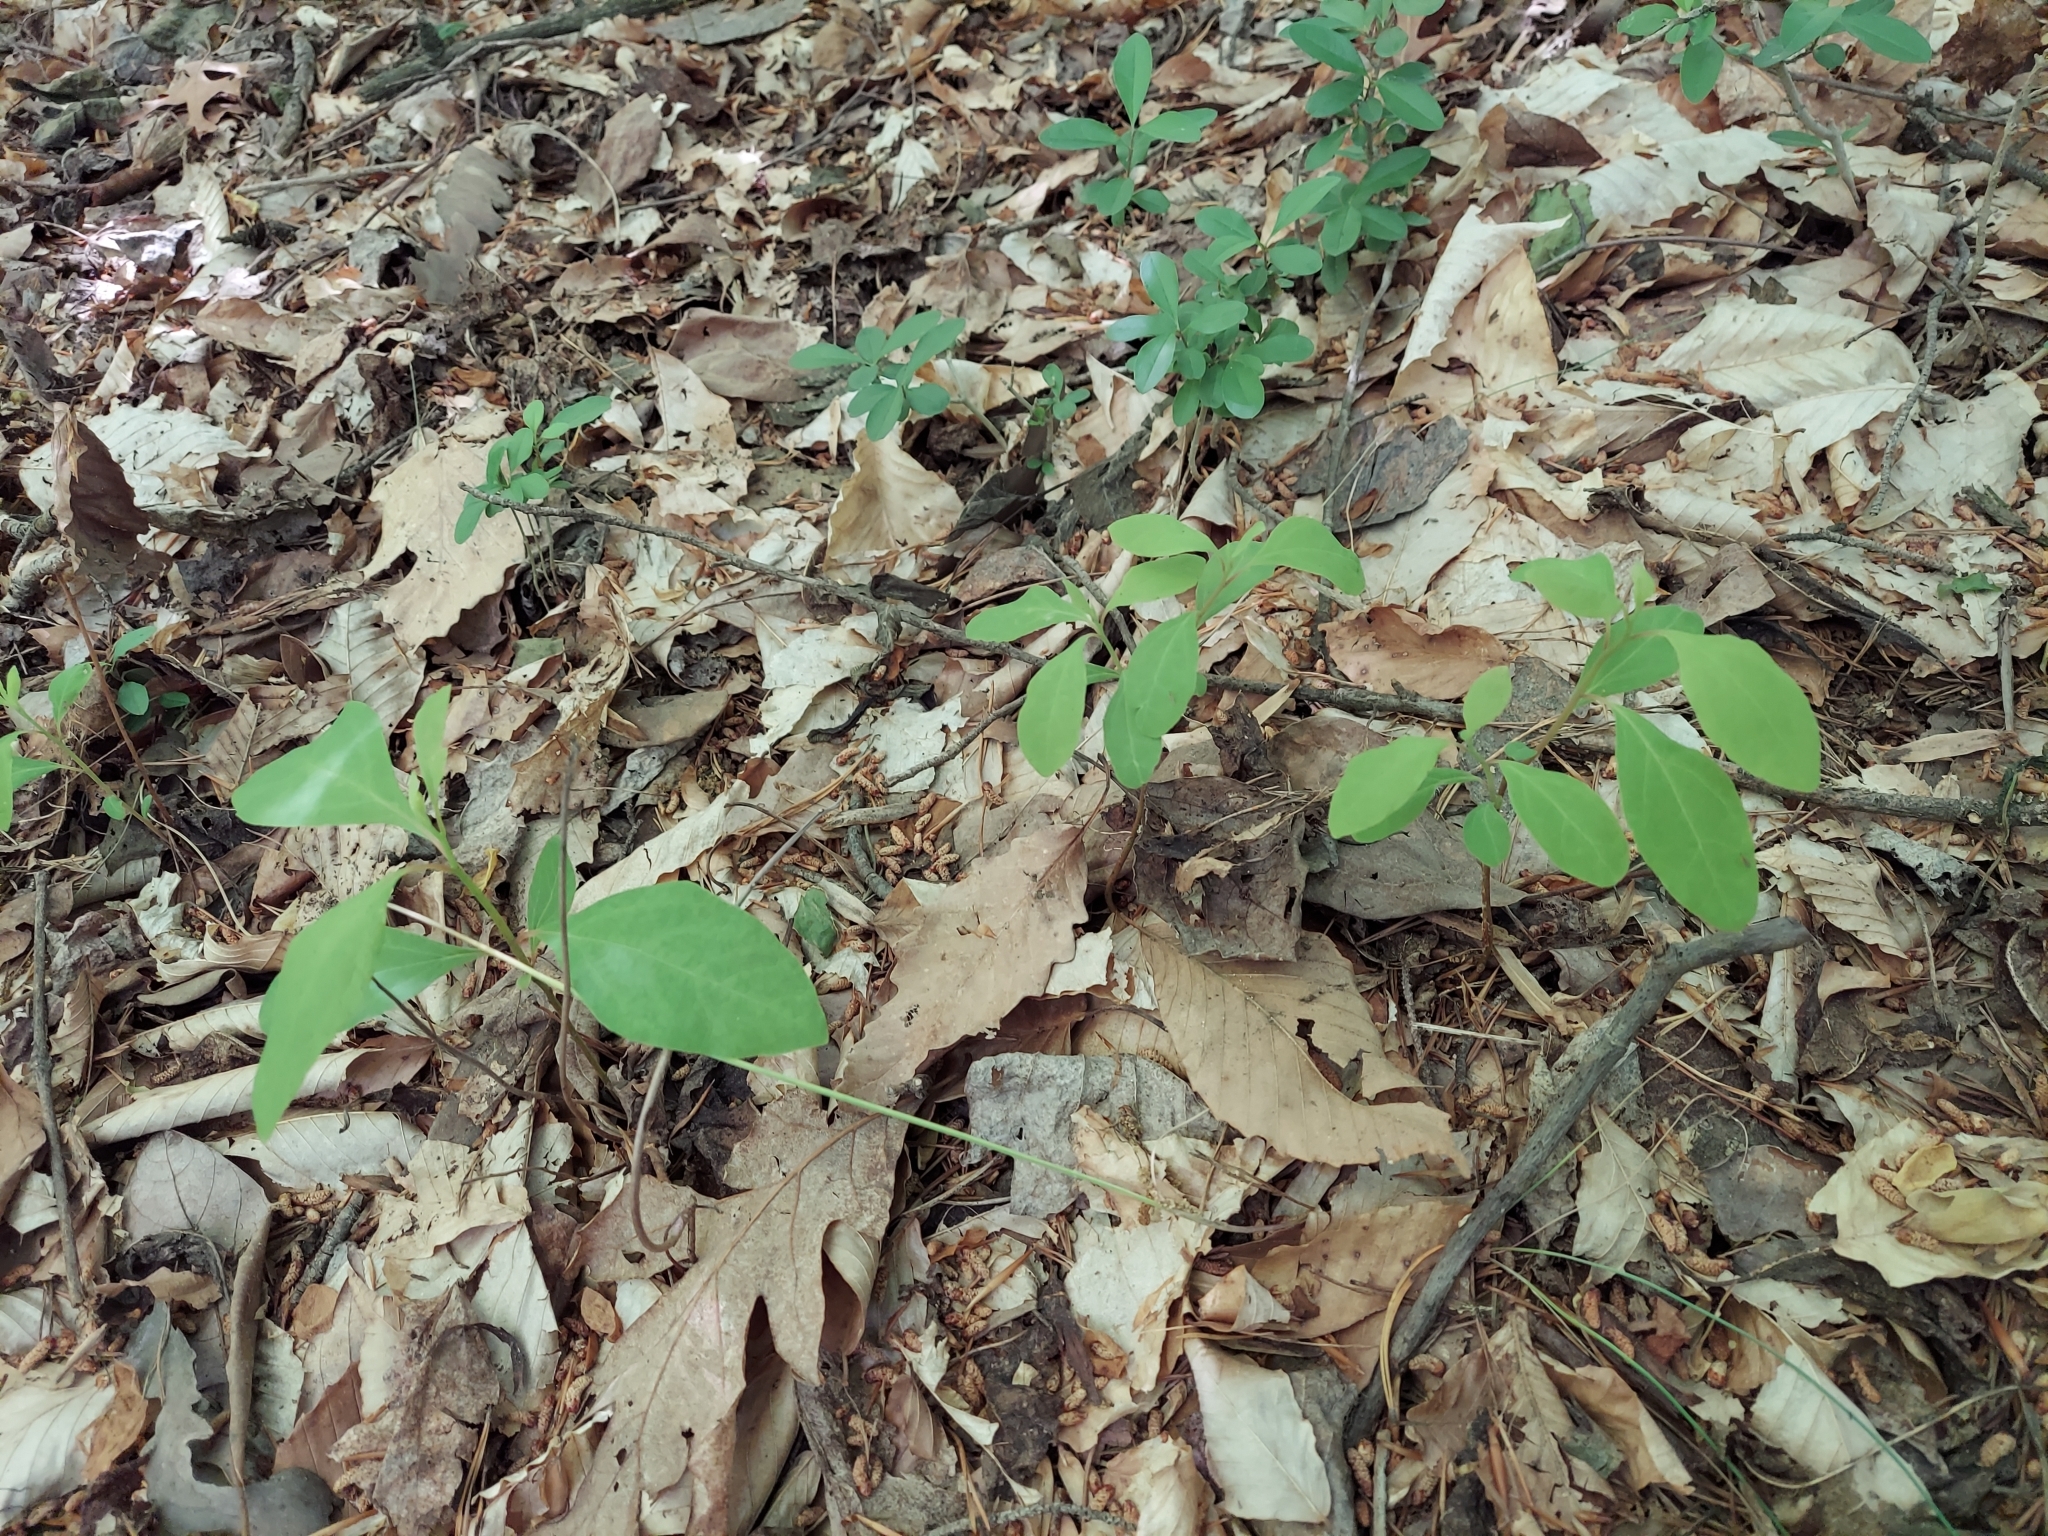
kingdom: Plantae
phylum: Tracheophyta
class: Magnoliopsida
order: Laurales
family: Lauraceae
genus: Sassafras
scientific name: Sassafras albidum
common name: Sassafras
